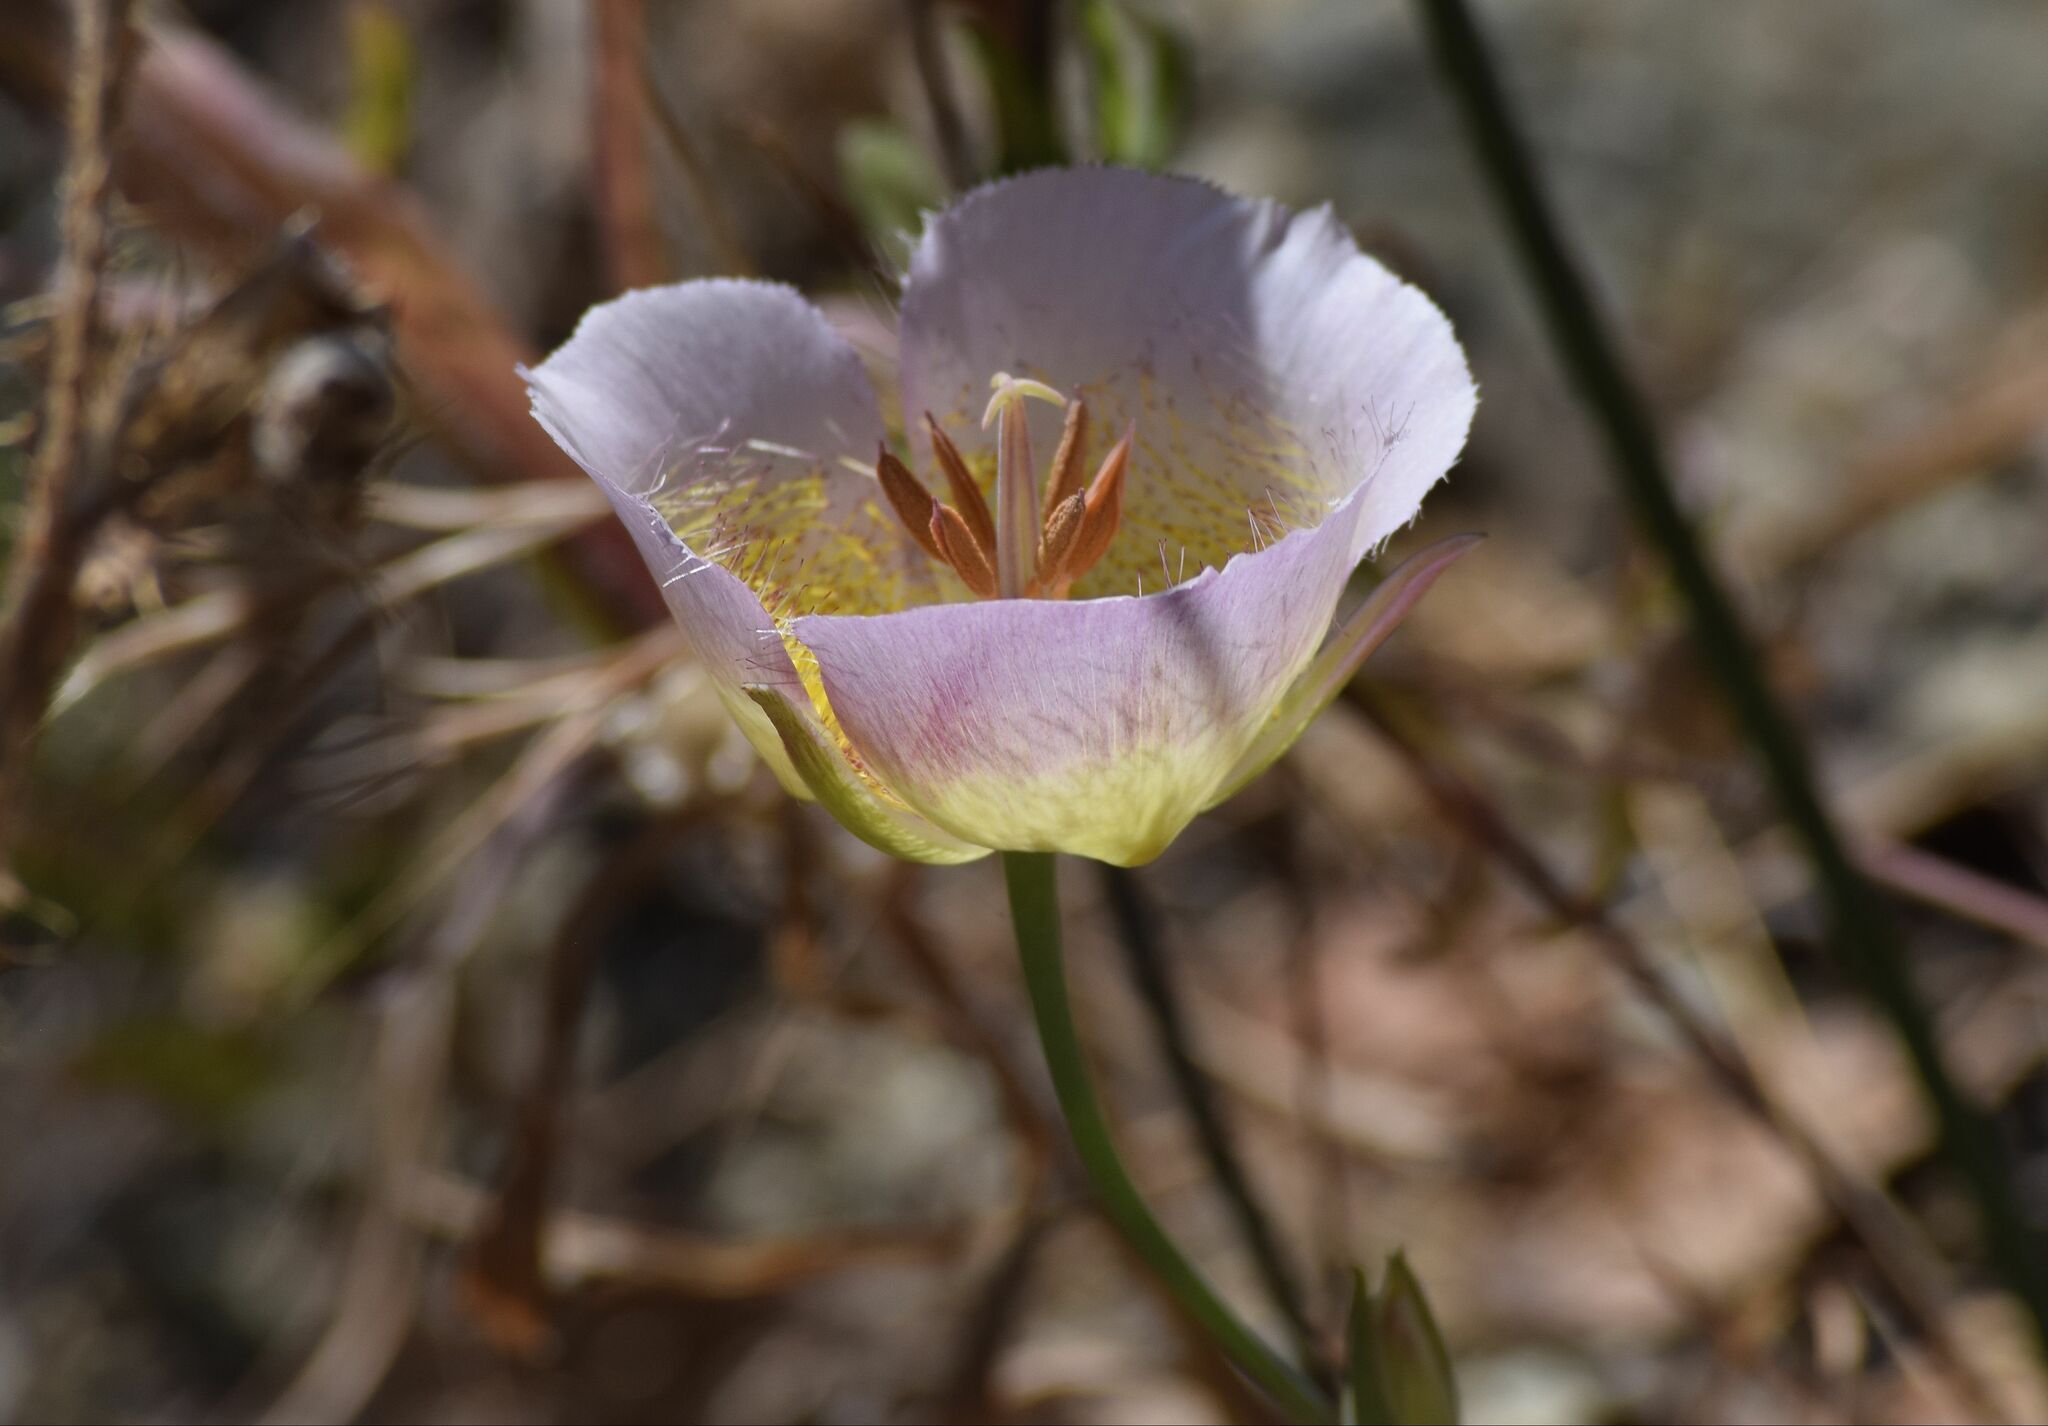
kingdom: Plantae
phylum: Tracheophyta
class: Liliopsida
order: Liliales
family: Liliaceae
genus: Calochortus
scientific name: Calochortus plummerae
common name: Plummer's mariposa-lily
